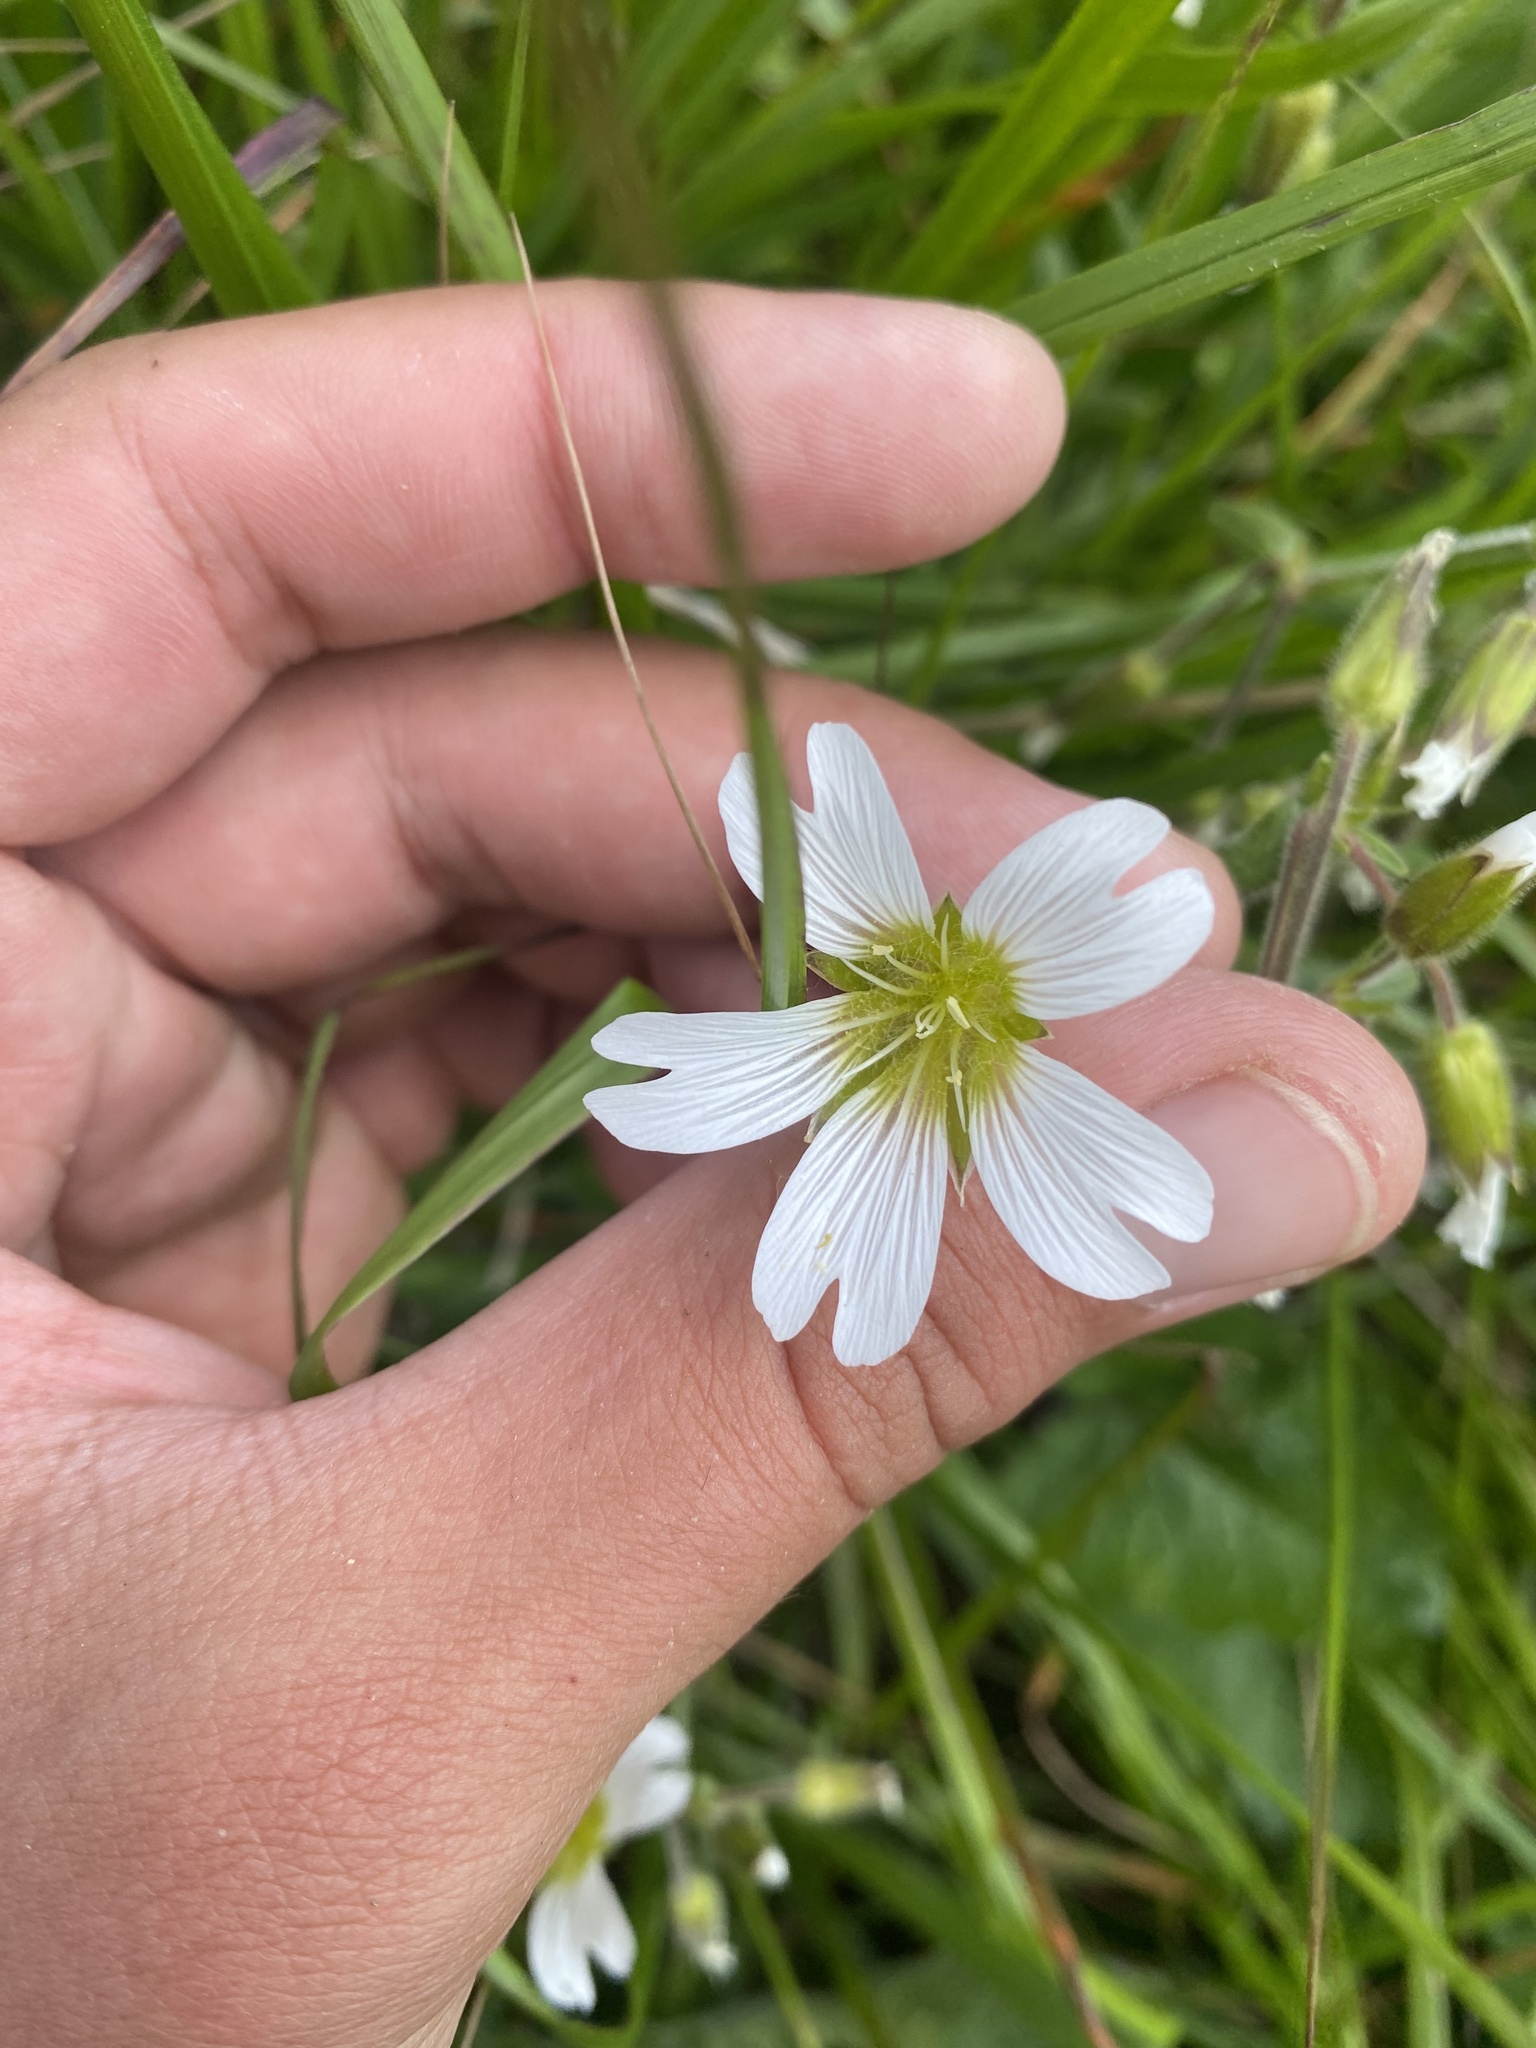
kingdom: Plantae
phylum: Tracheophyta
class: Magnoliopsida
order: Caryophyllales
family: Caryophyllaceae
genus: Dichodon
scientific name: Dichodon cerastoides
